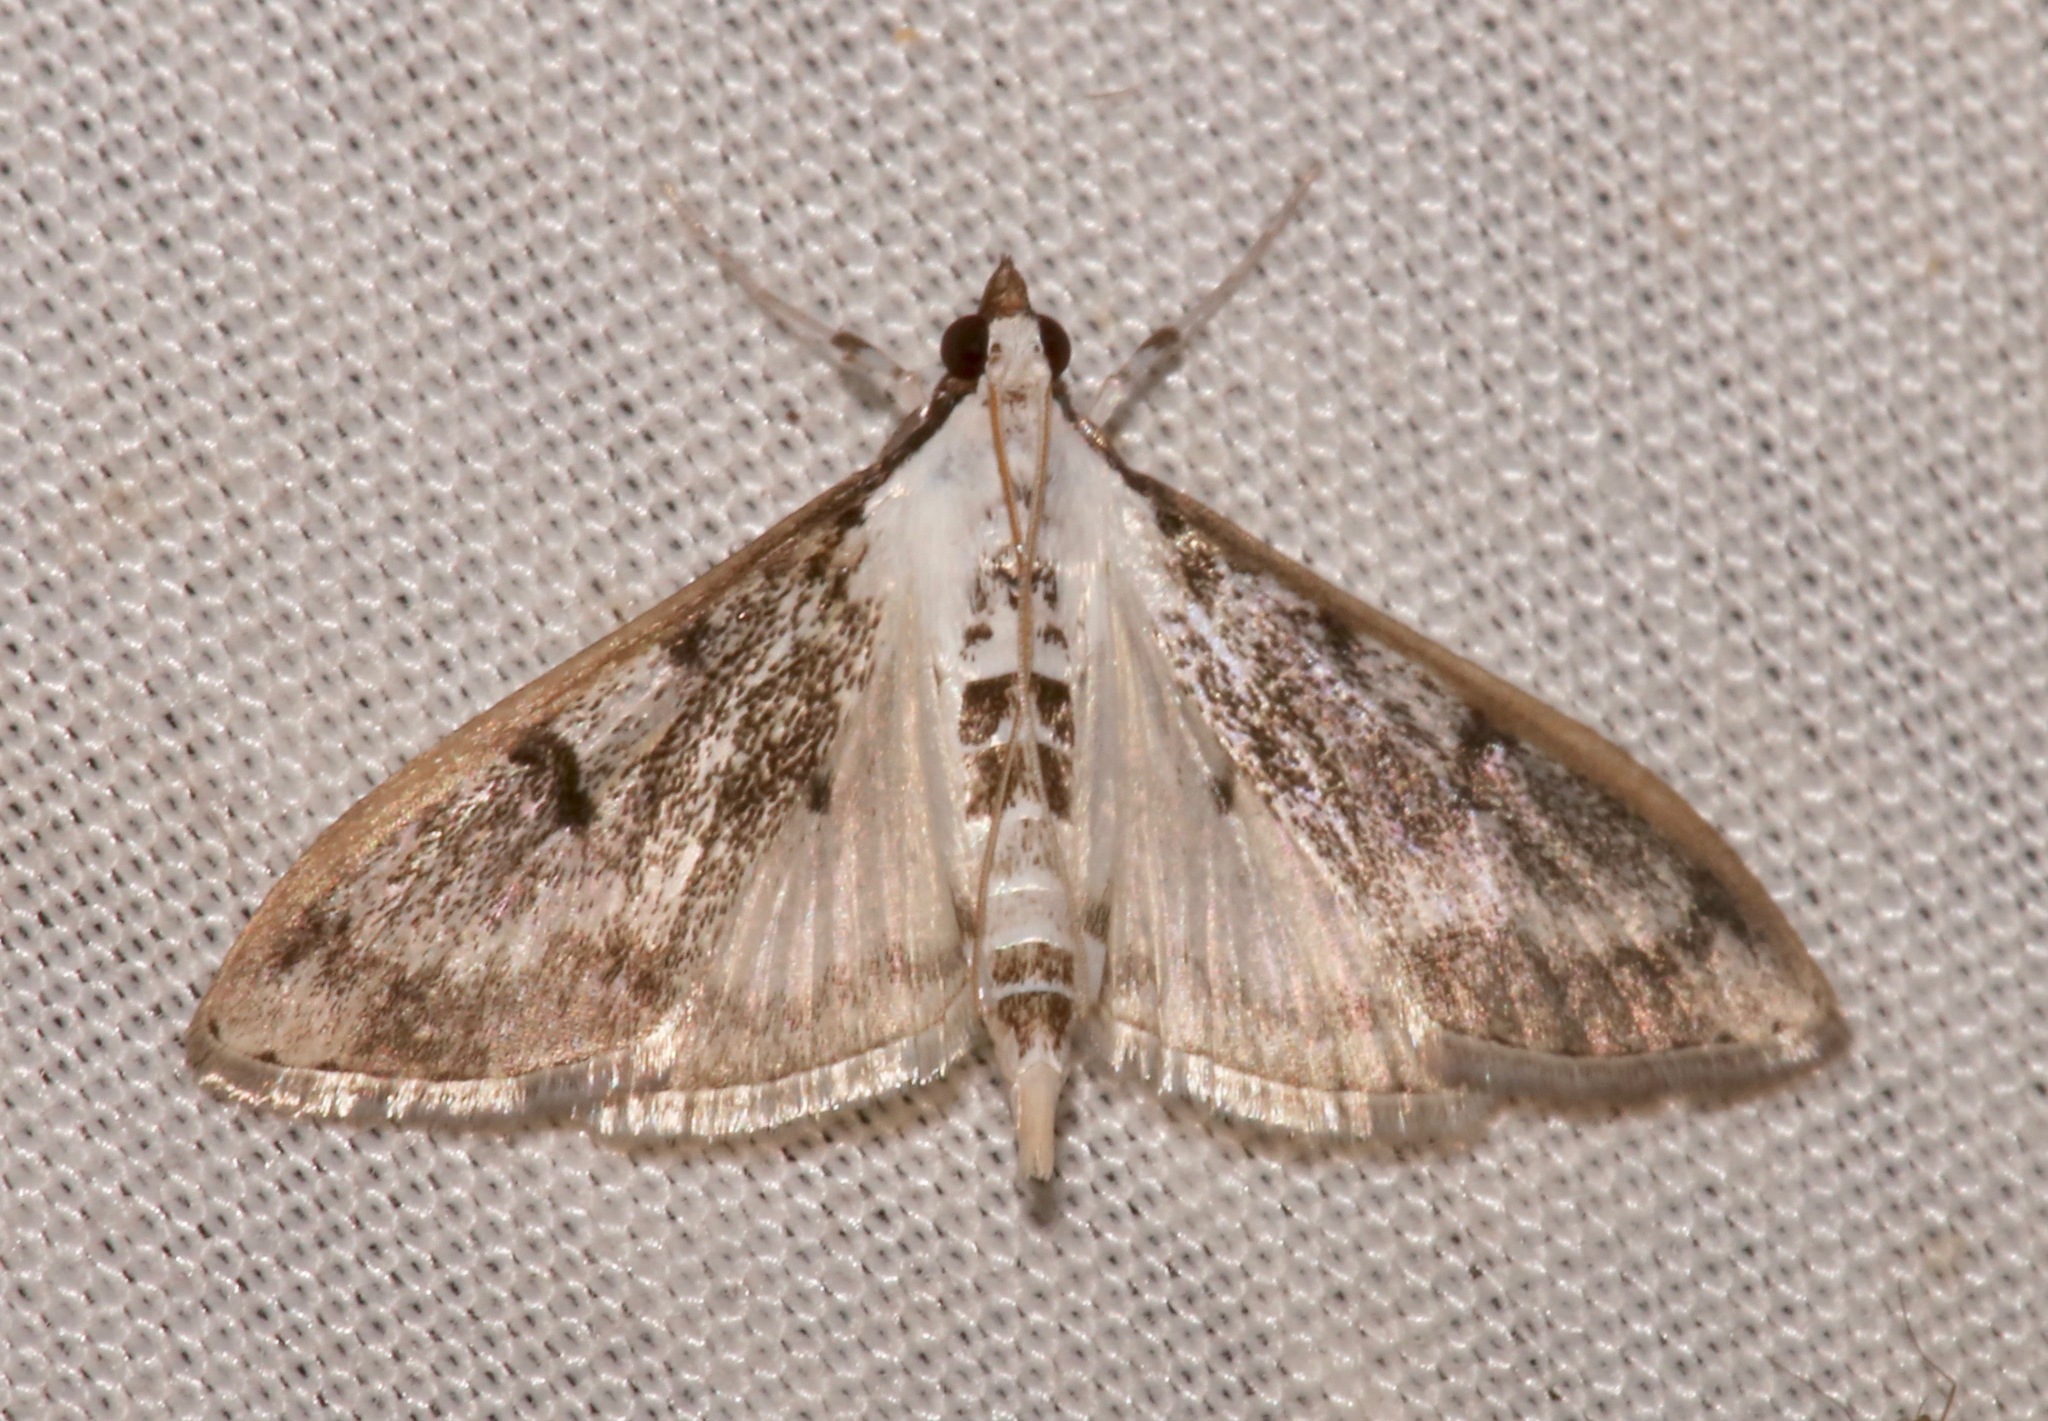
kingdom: Animalia
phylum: Arthropoda
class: Insecta
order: Lepidoptera
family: Crambidae
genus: Palpita
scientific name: Palpita gracilalis
